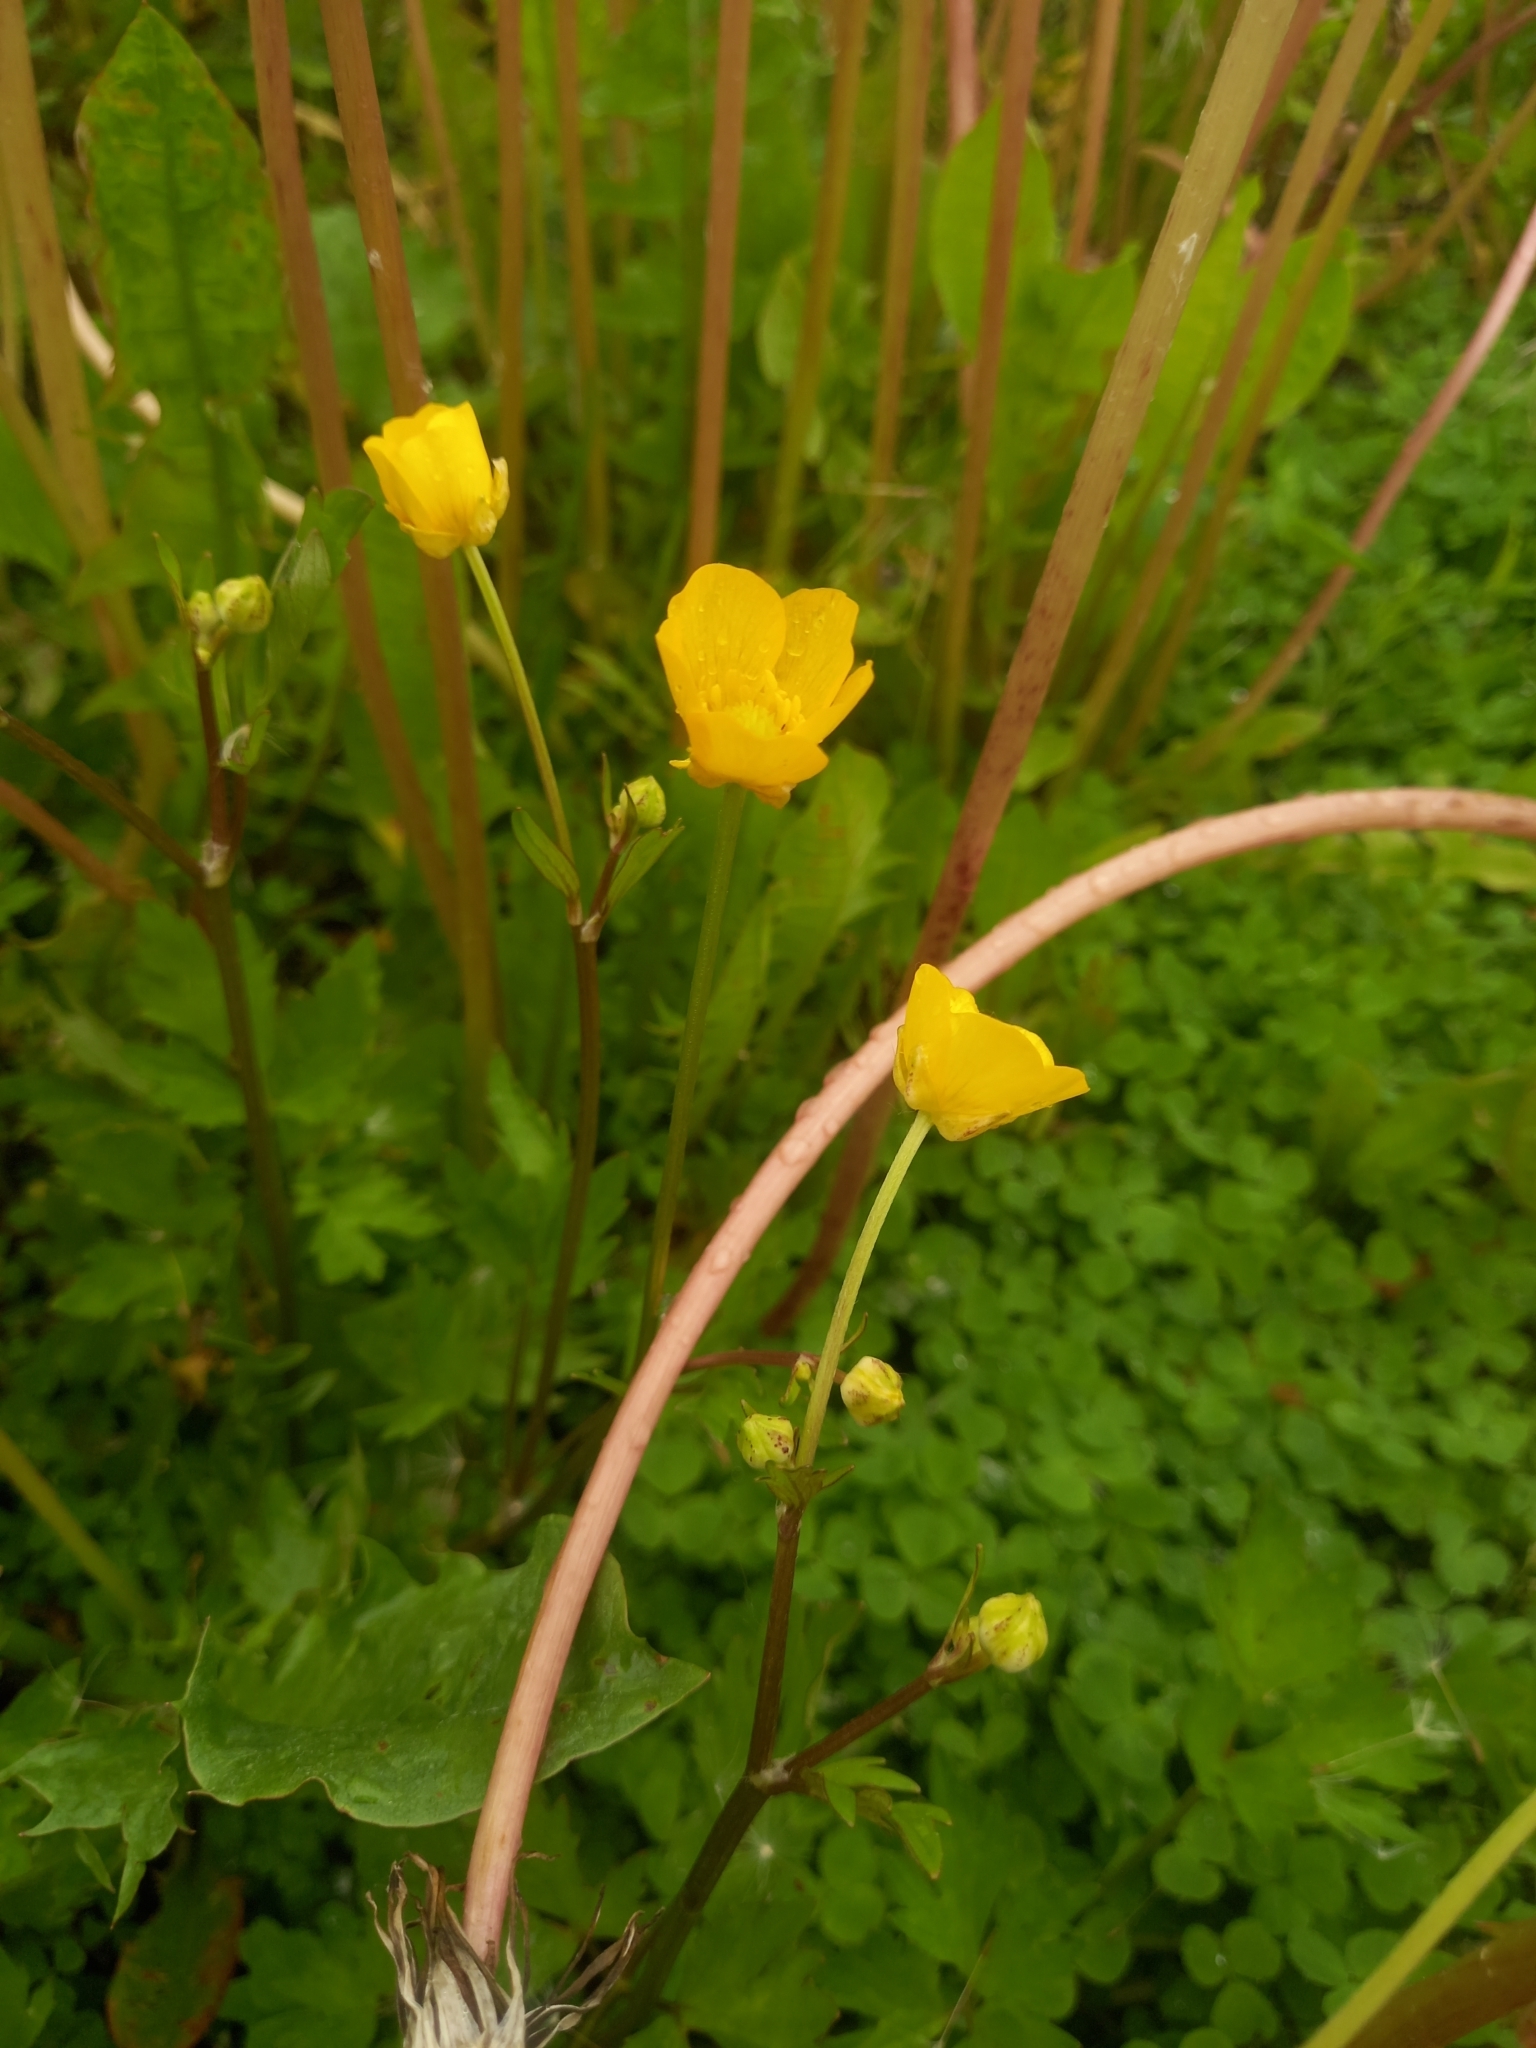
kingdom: Plantae
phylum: Tracheophyta
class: Magnoliopsida
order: Ranunculales
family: Ranunculaceae
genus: Ranunculus
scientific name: Ranunculus repens
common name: Creeping buttercup
